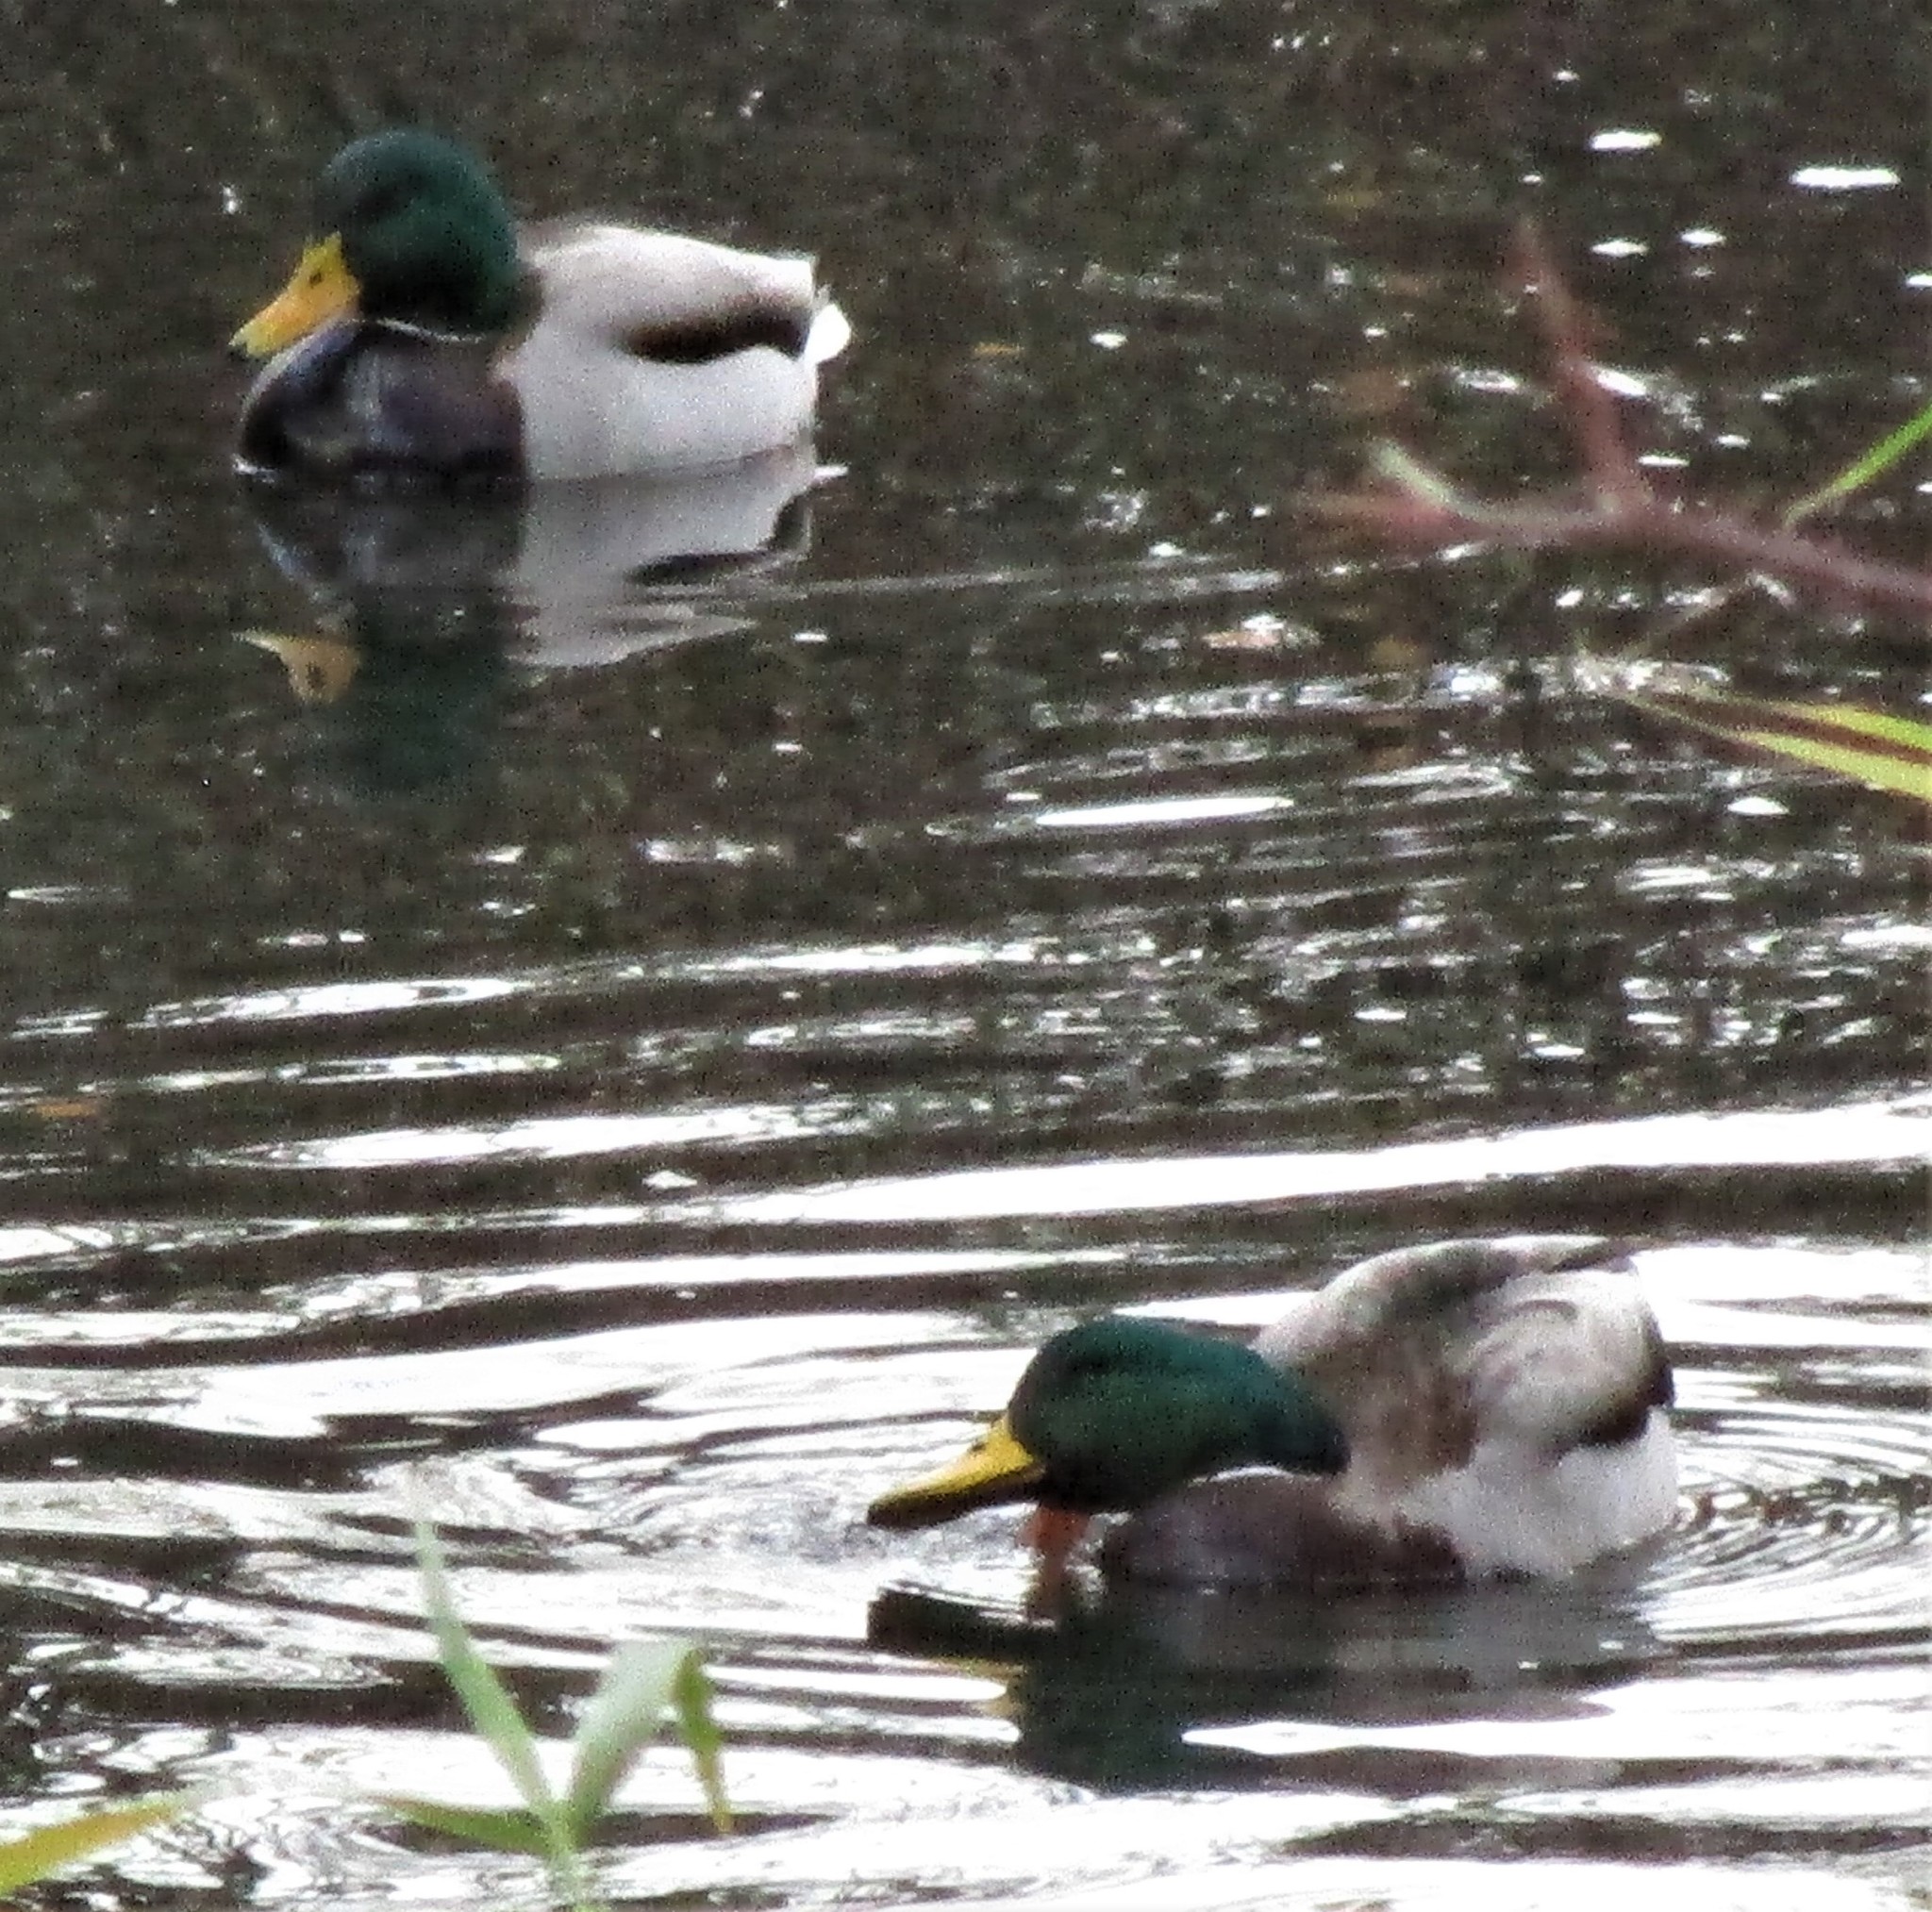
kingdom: Animalia
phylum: Chordata
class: Aves
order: Anseriformes
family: Anatidae
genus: Anas
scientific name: Anas platyrhynchos
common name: Mallard
